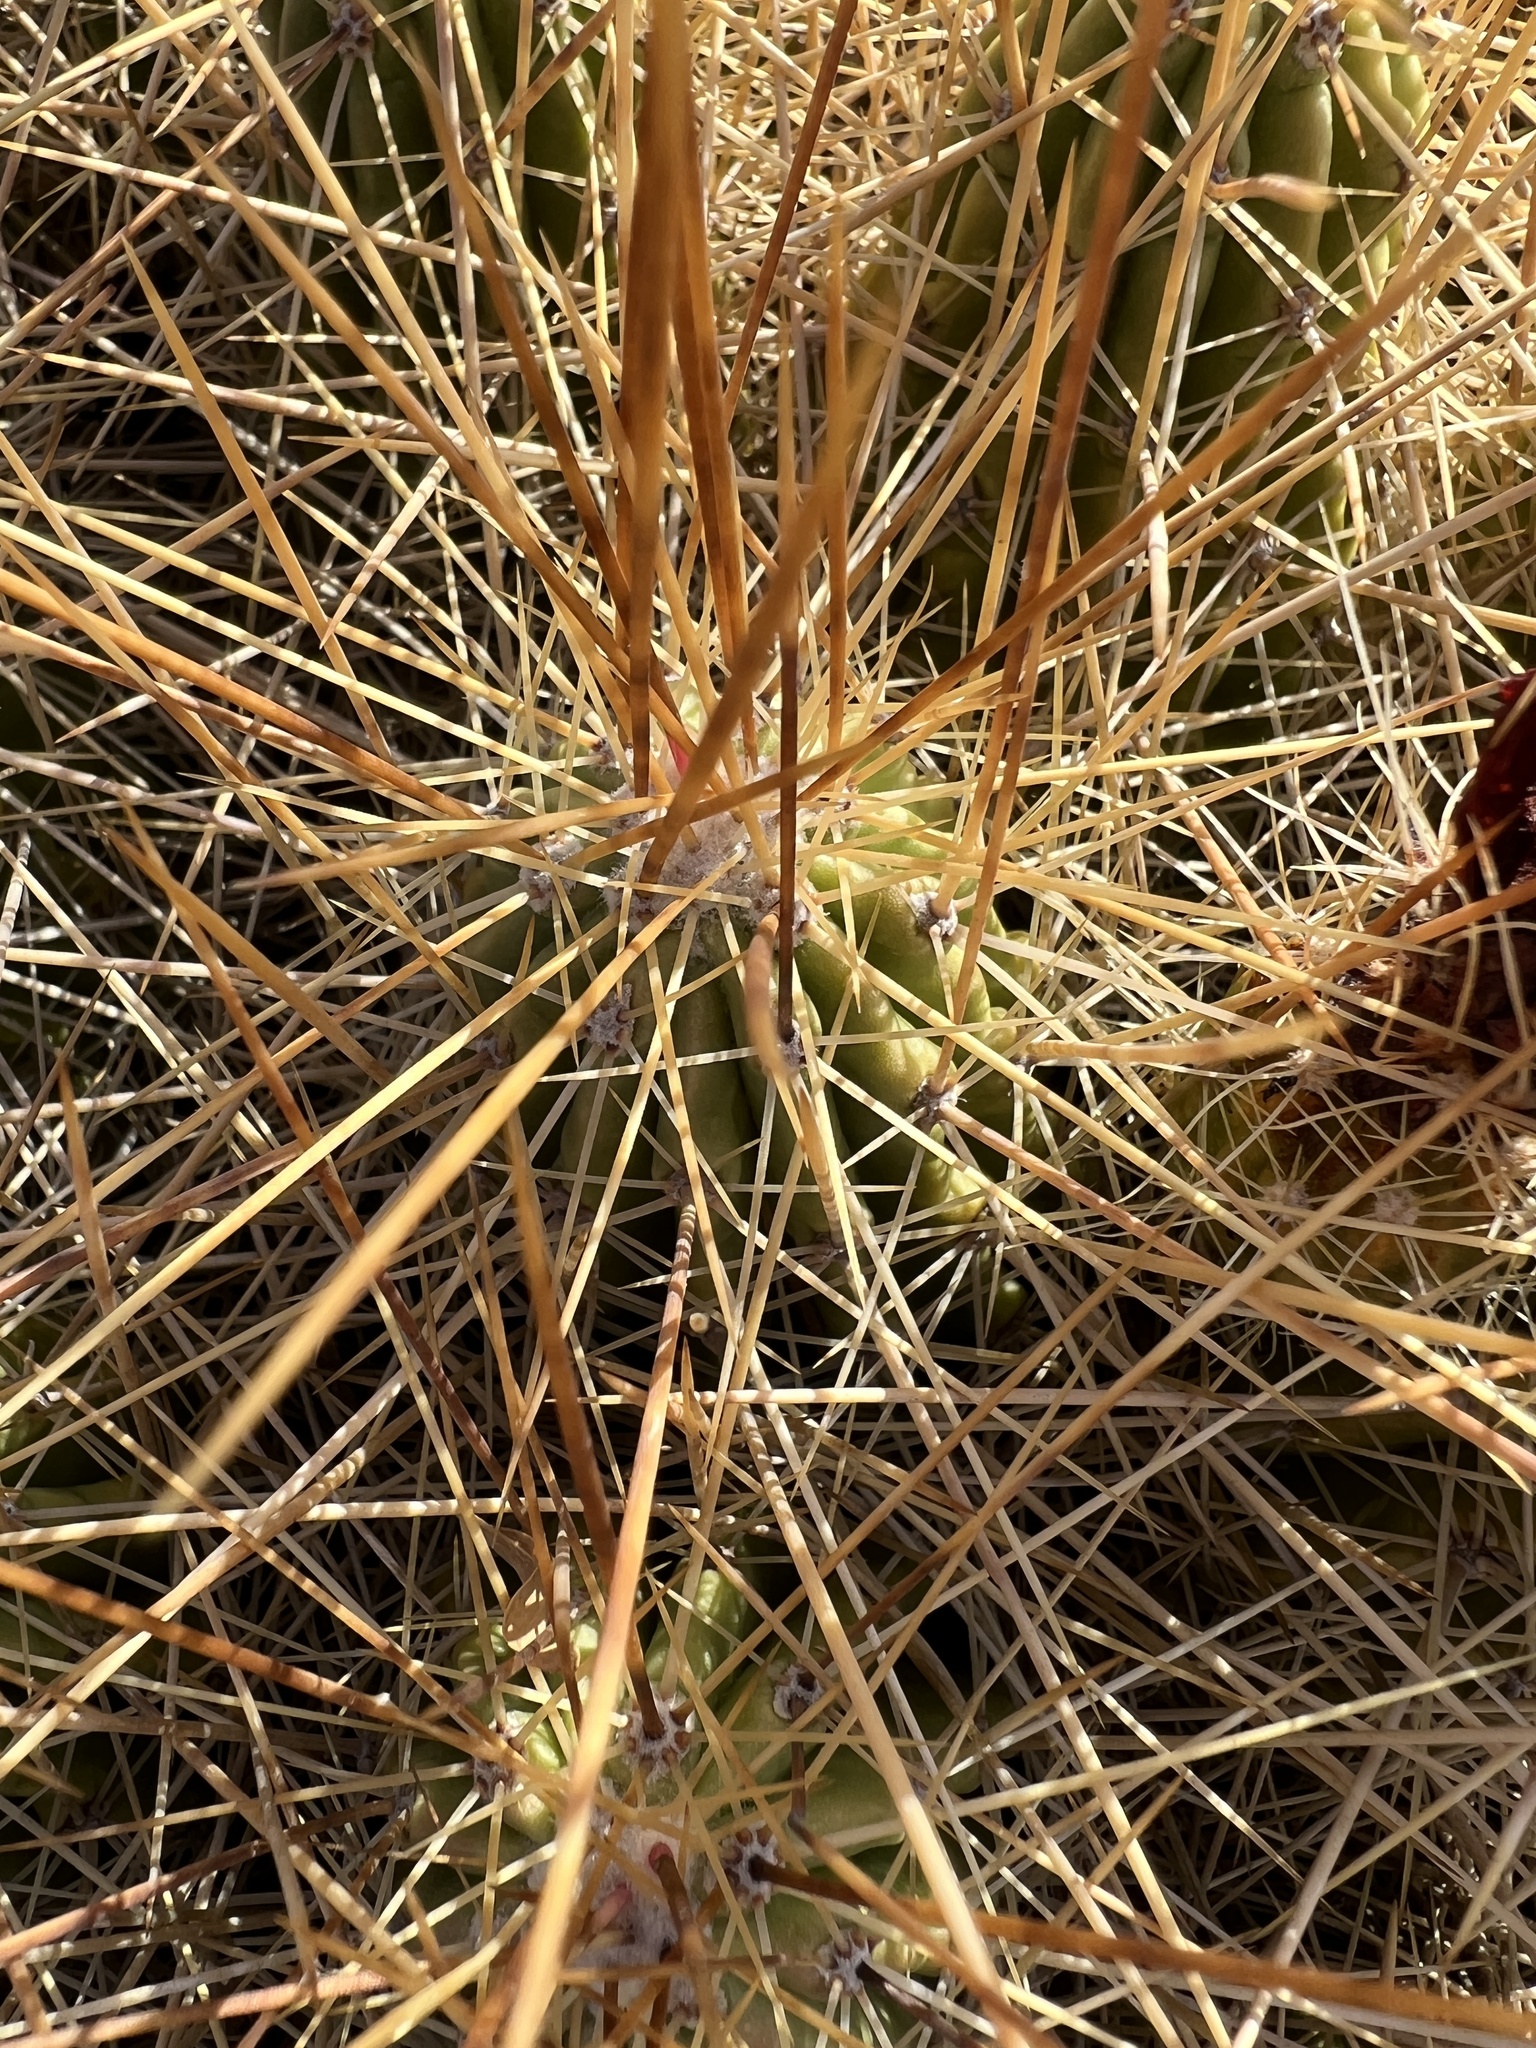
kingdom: Plantae
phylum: Tracheophyta
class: Magnoliopsida
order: Caryophyllales
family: Cactaceae
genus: Echinocereus
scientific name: Echinocereus stramineus
